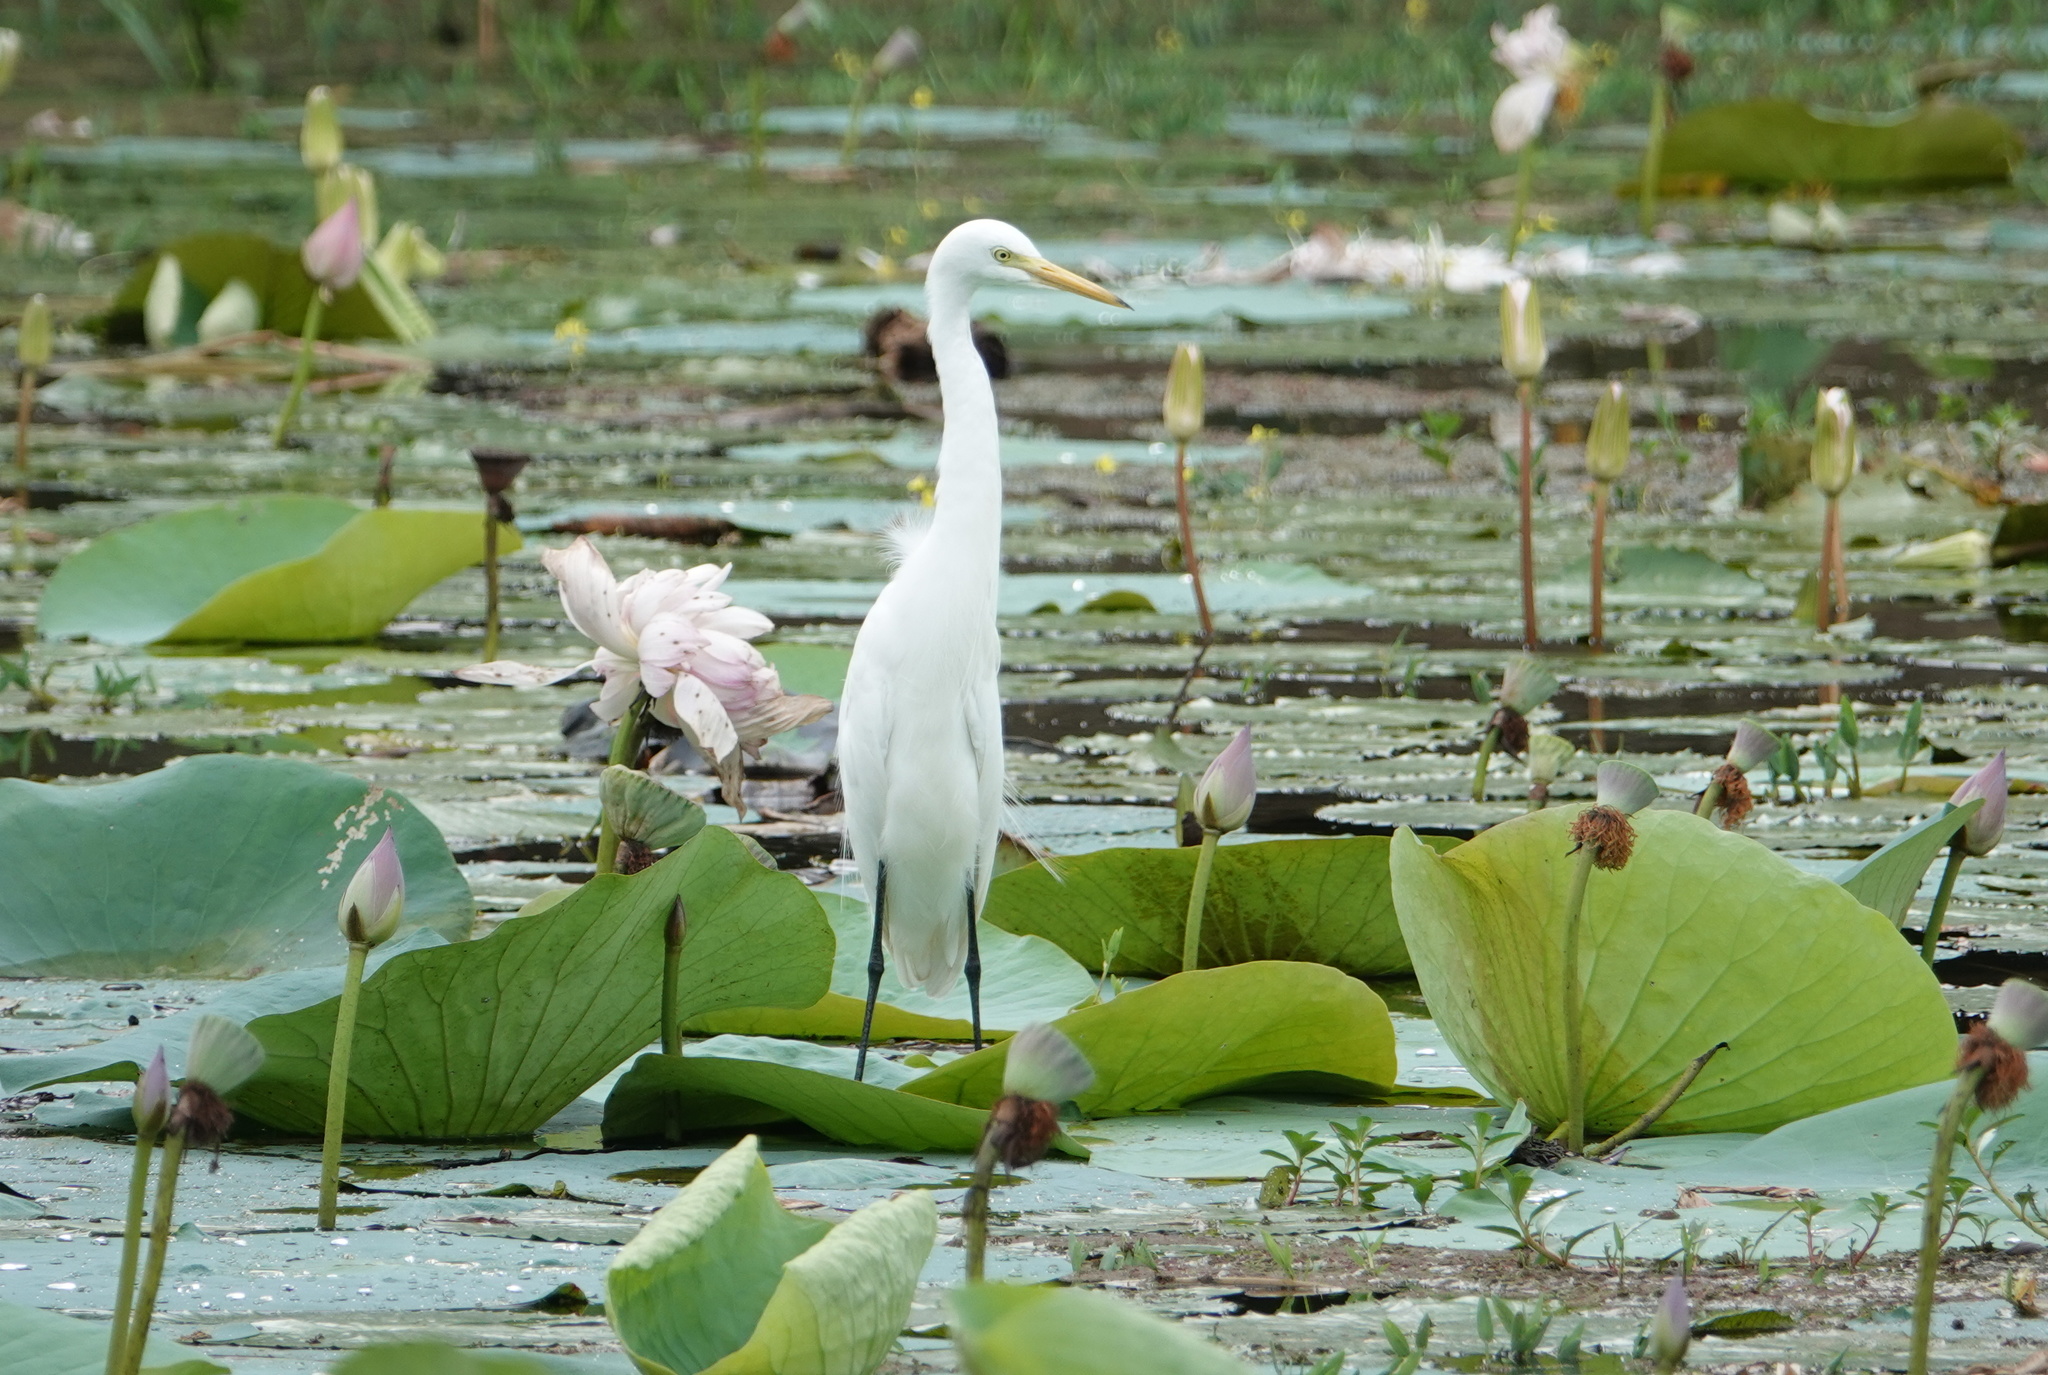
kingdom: Animalia
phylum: Chordata
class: Aves
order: Pelecaniformes
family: Ardeidae
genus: Egretta
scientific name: Egretta intermedia
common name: Intermediate egret
